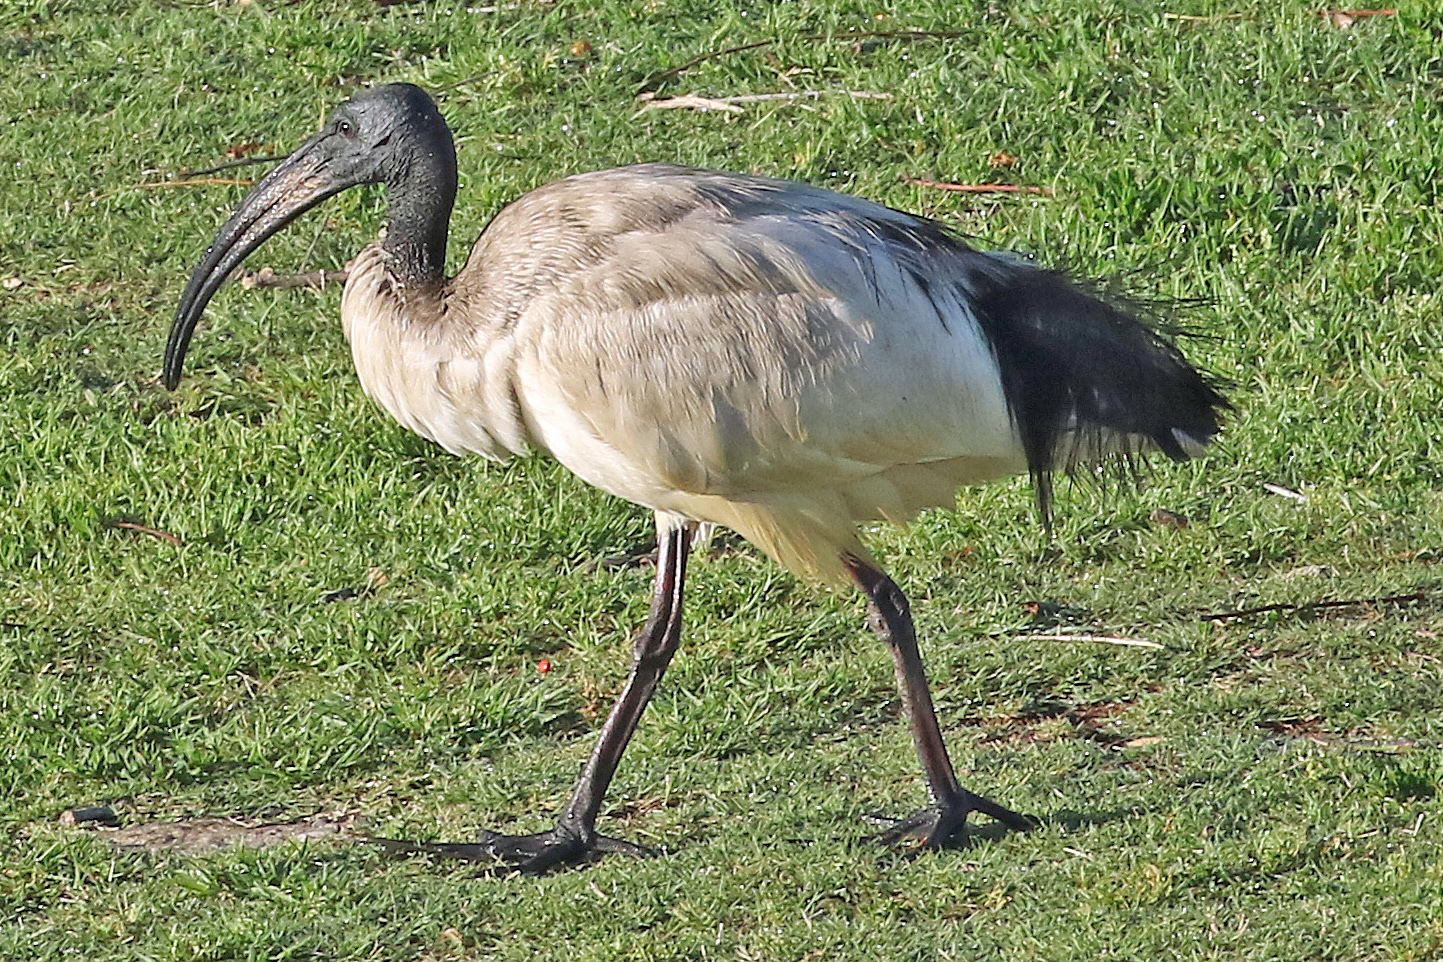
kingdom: Animalia
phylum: Chordata
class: Aves
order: Pelecaniformes
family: Threskiornithidae
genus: Threskiornis
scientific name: Threskiornis aethiopicus
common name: Sacred ibis
